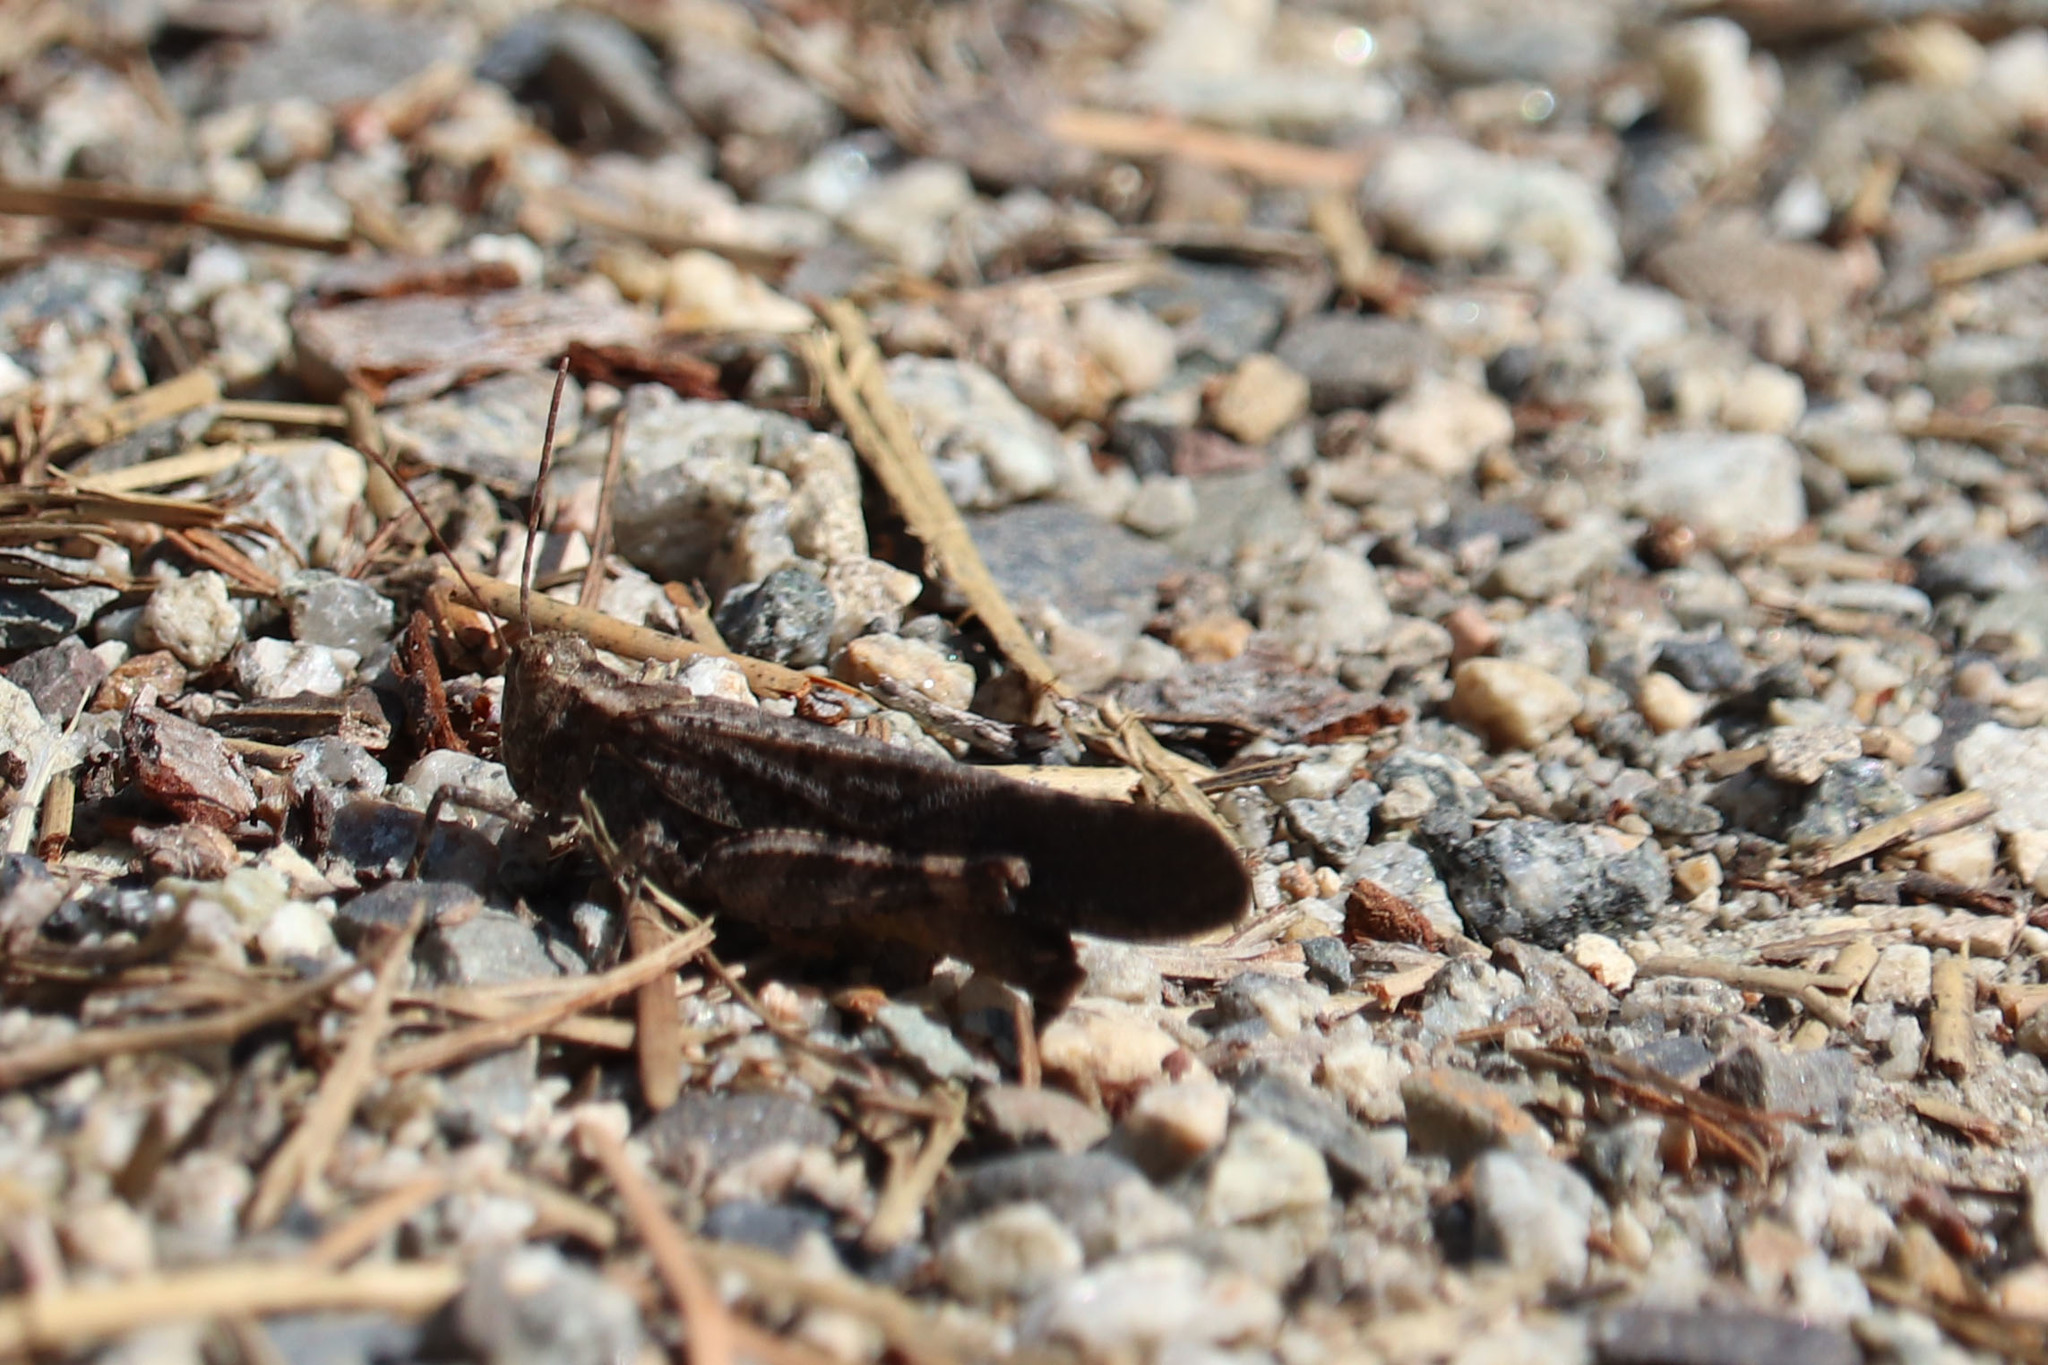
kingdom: Animalia
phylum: Arthropoda
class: Insecta
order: Orthoptera
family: Acrididae
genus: Trimerotropis
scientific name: Trimerotropis verruculata
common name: Crackling forest grasshopper
